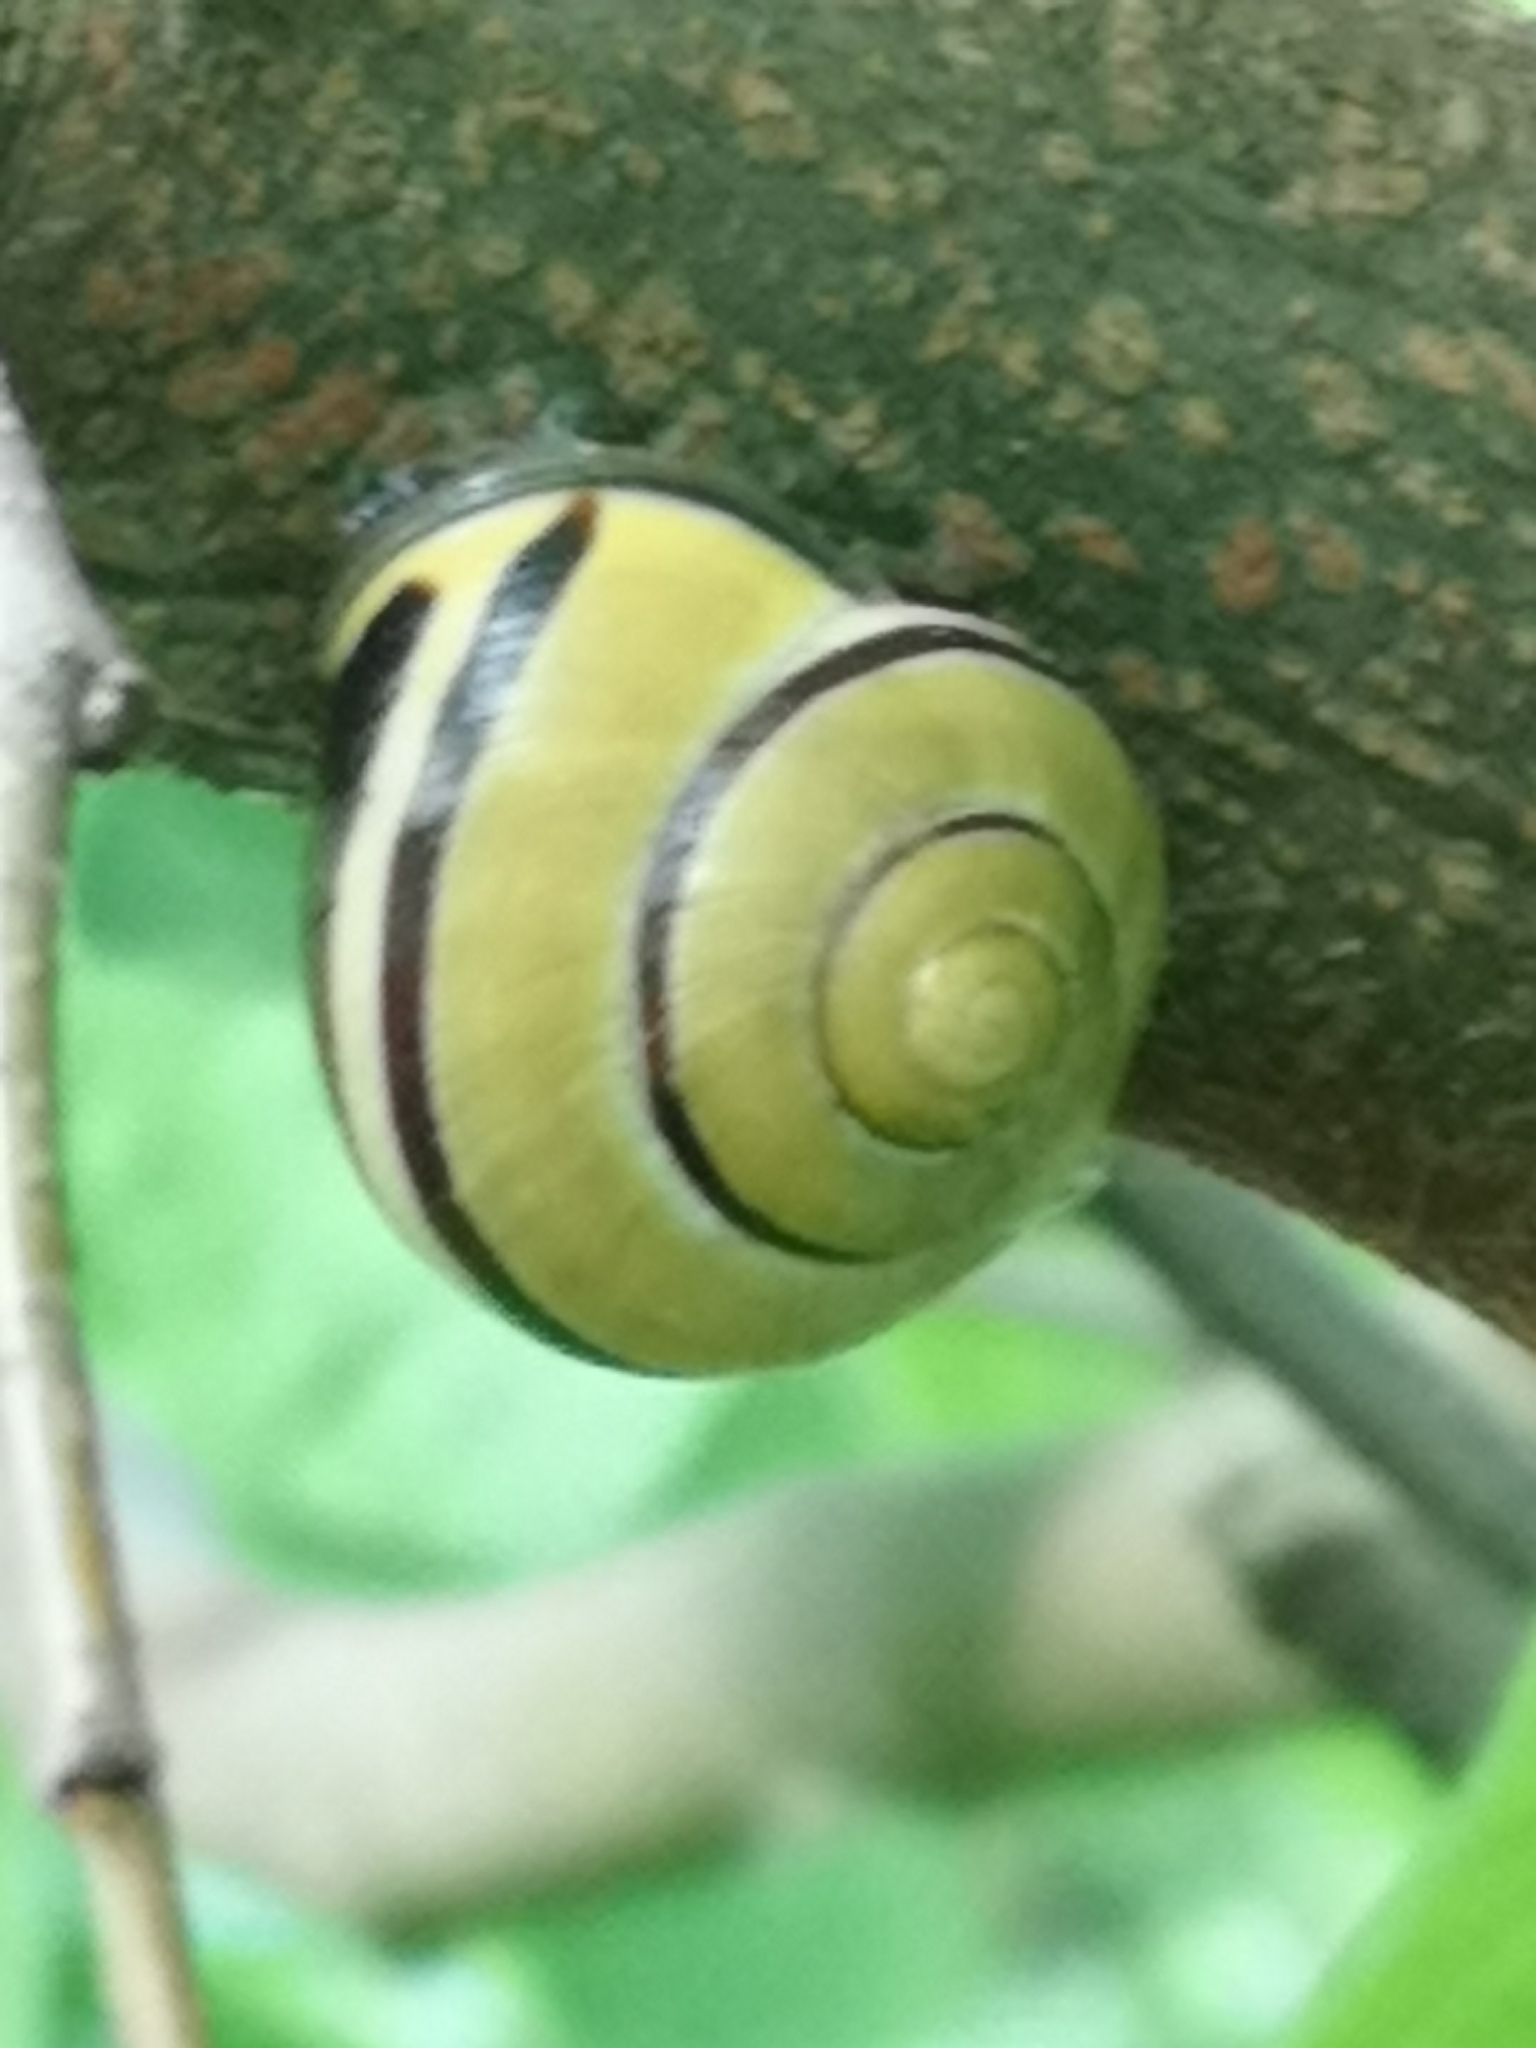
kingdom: Animalia
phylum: Mollusca
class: Gastropoda
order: Stylommatophora
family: Helicidae
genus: Cepaea
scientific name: Cepaea nemoralis
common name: Grovesnail
